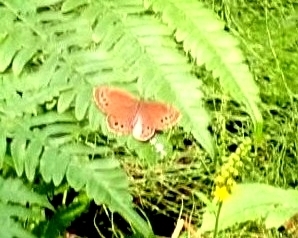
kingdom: Animalia
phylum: Arthropoda
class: Insecta
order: Lepidoptera
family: Nymphalidae
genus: Pararge
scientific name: Pararge Lopinga achine
